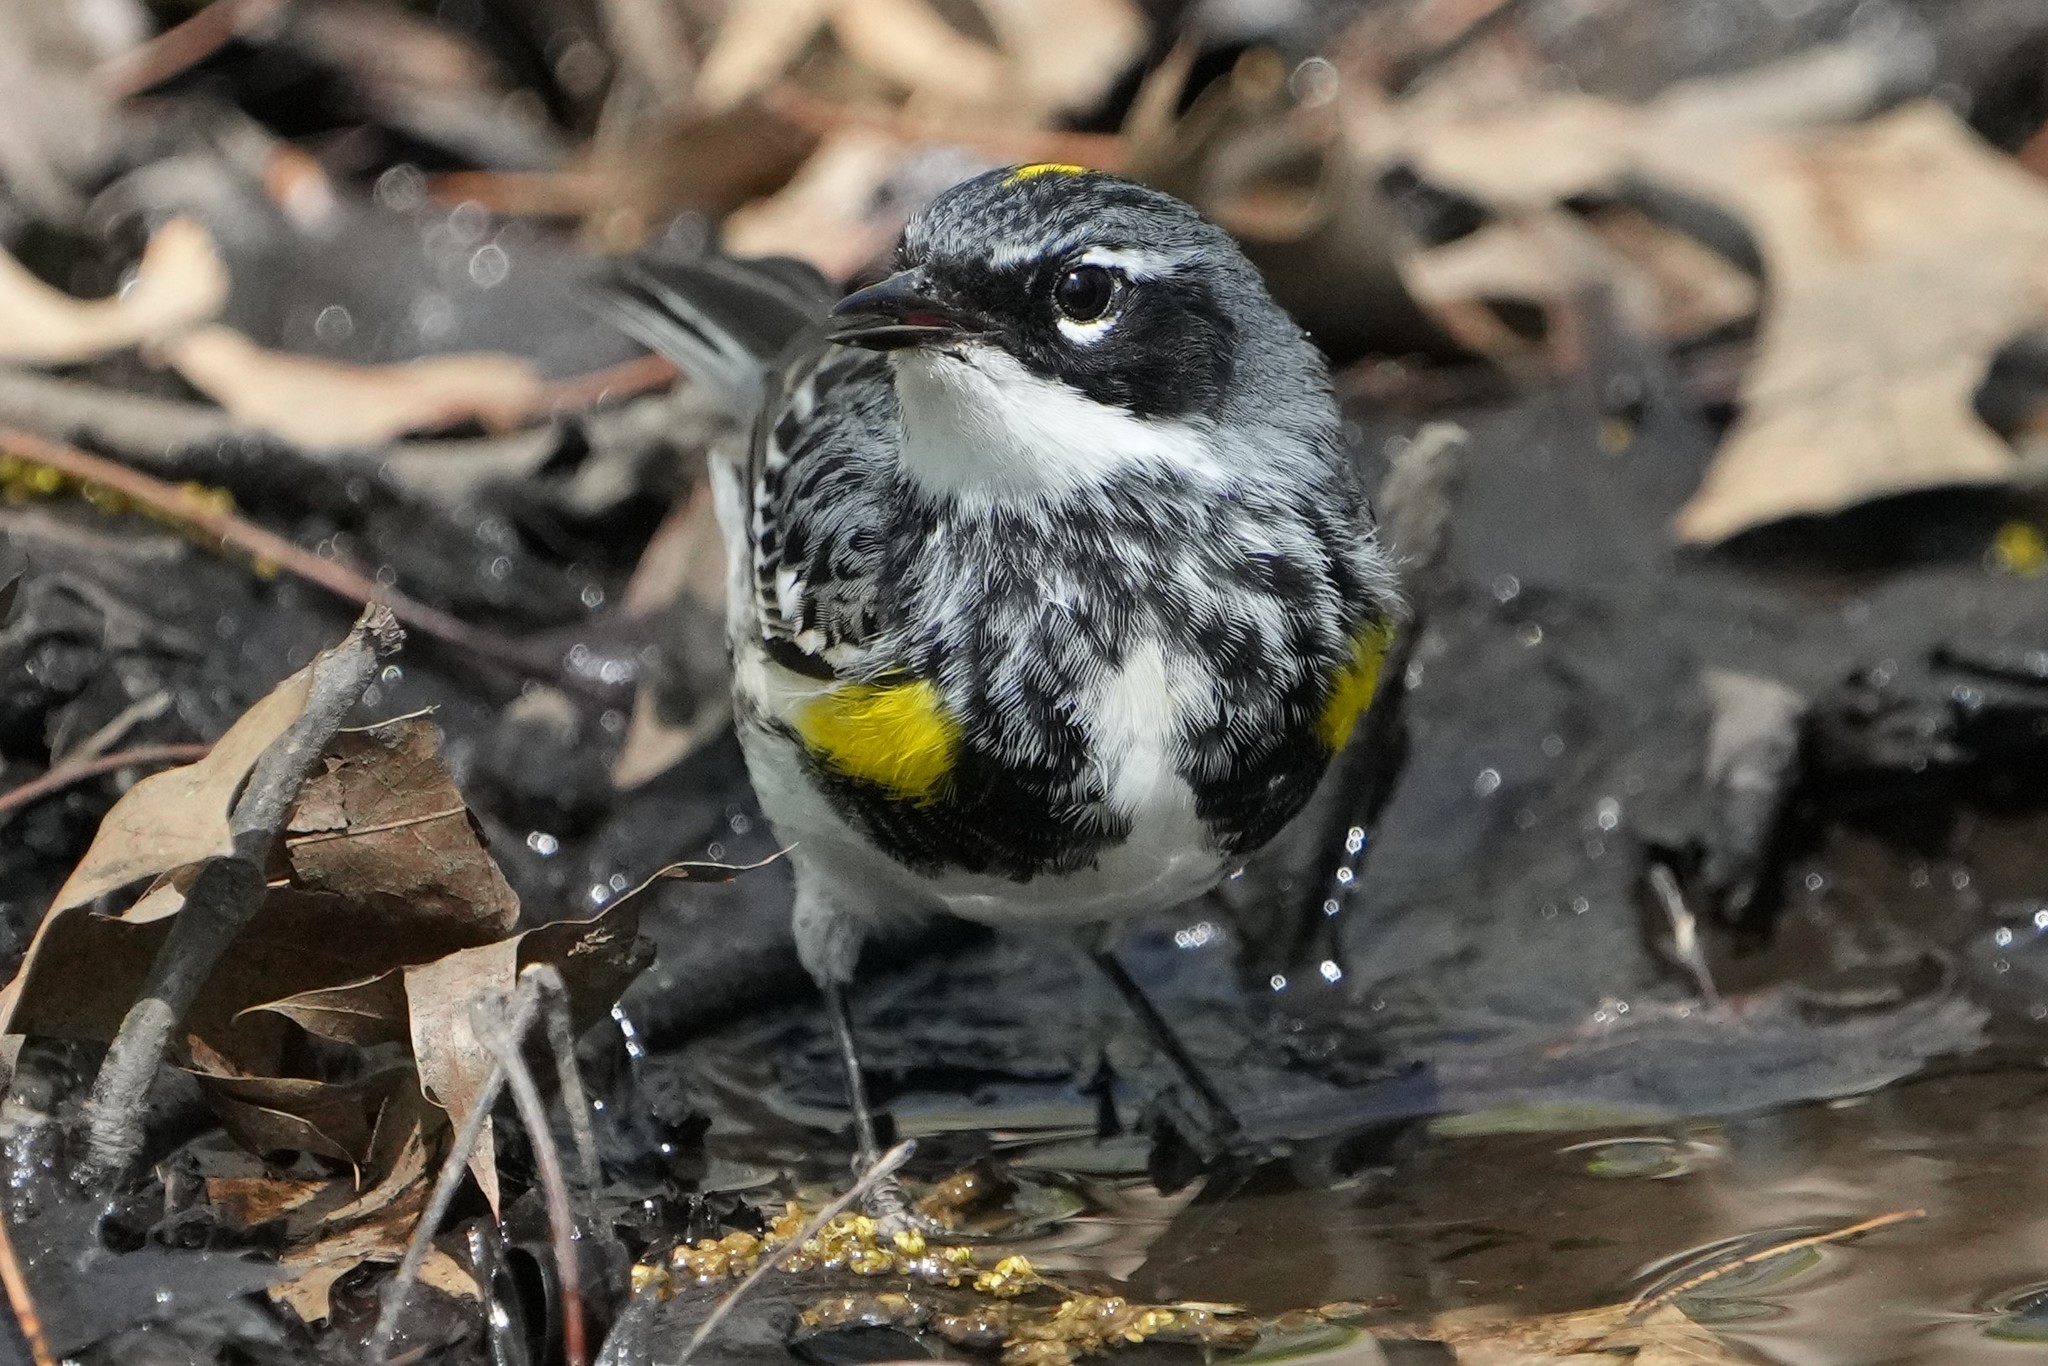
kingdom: Animalia
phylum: Chordata
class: Aves
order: Passeriformes
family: Parulidae
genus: Setophaga
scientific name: Setophaga coronata
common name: Myrtle warbler
